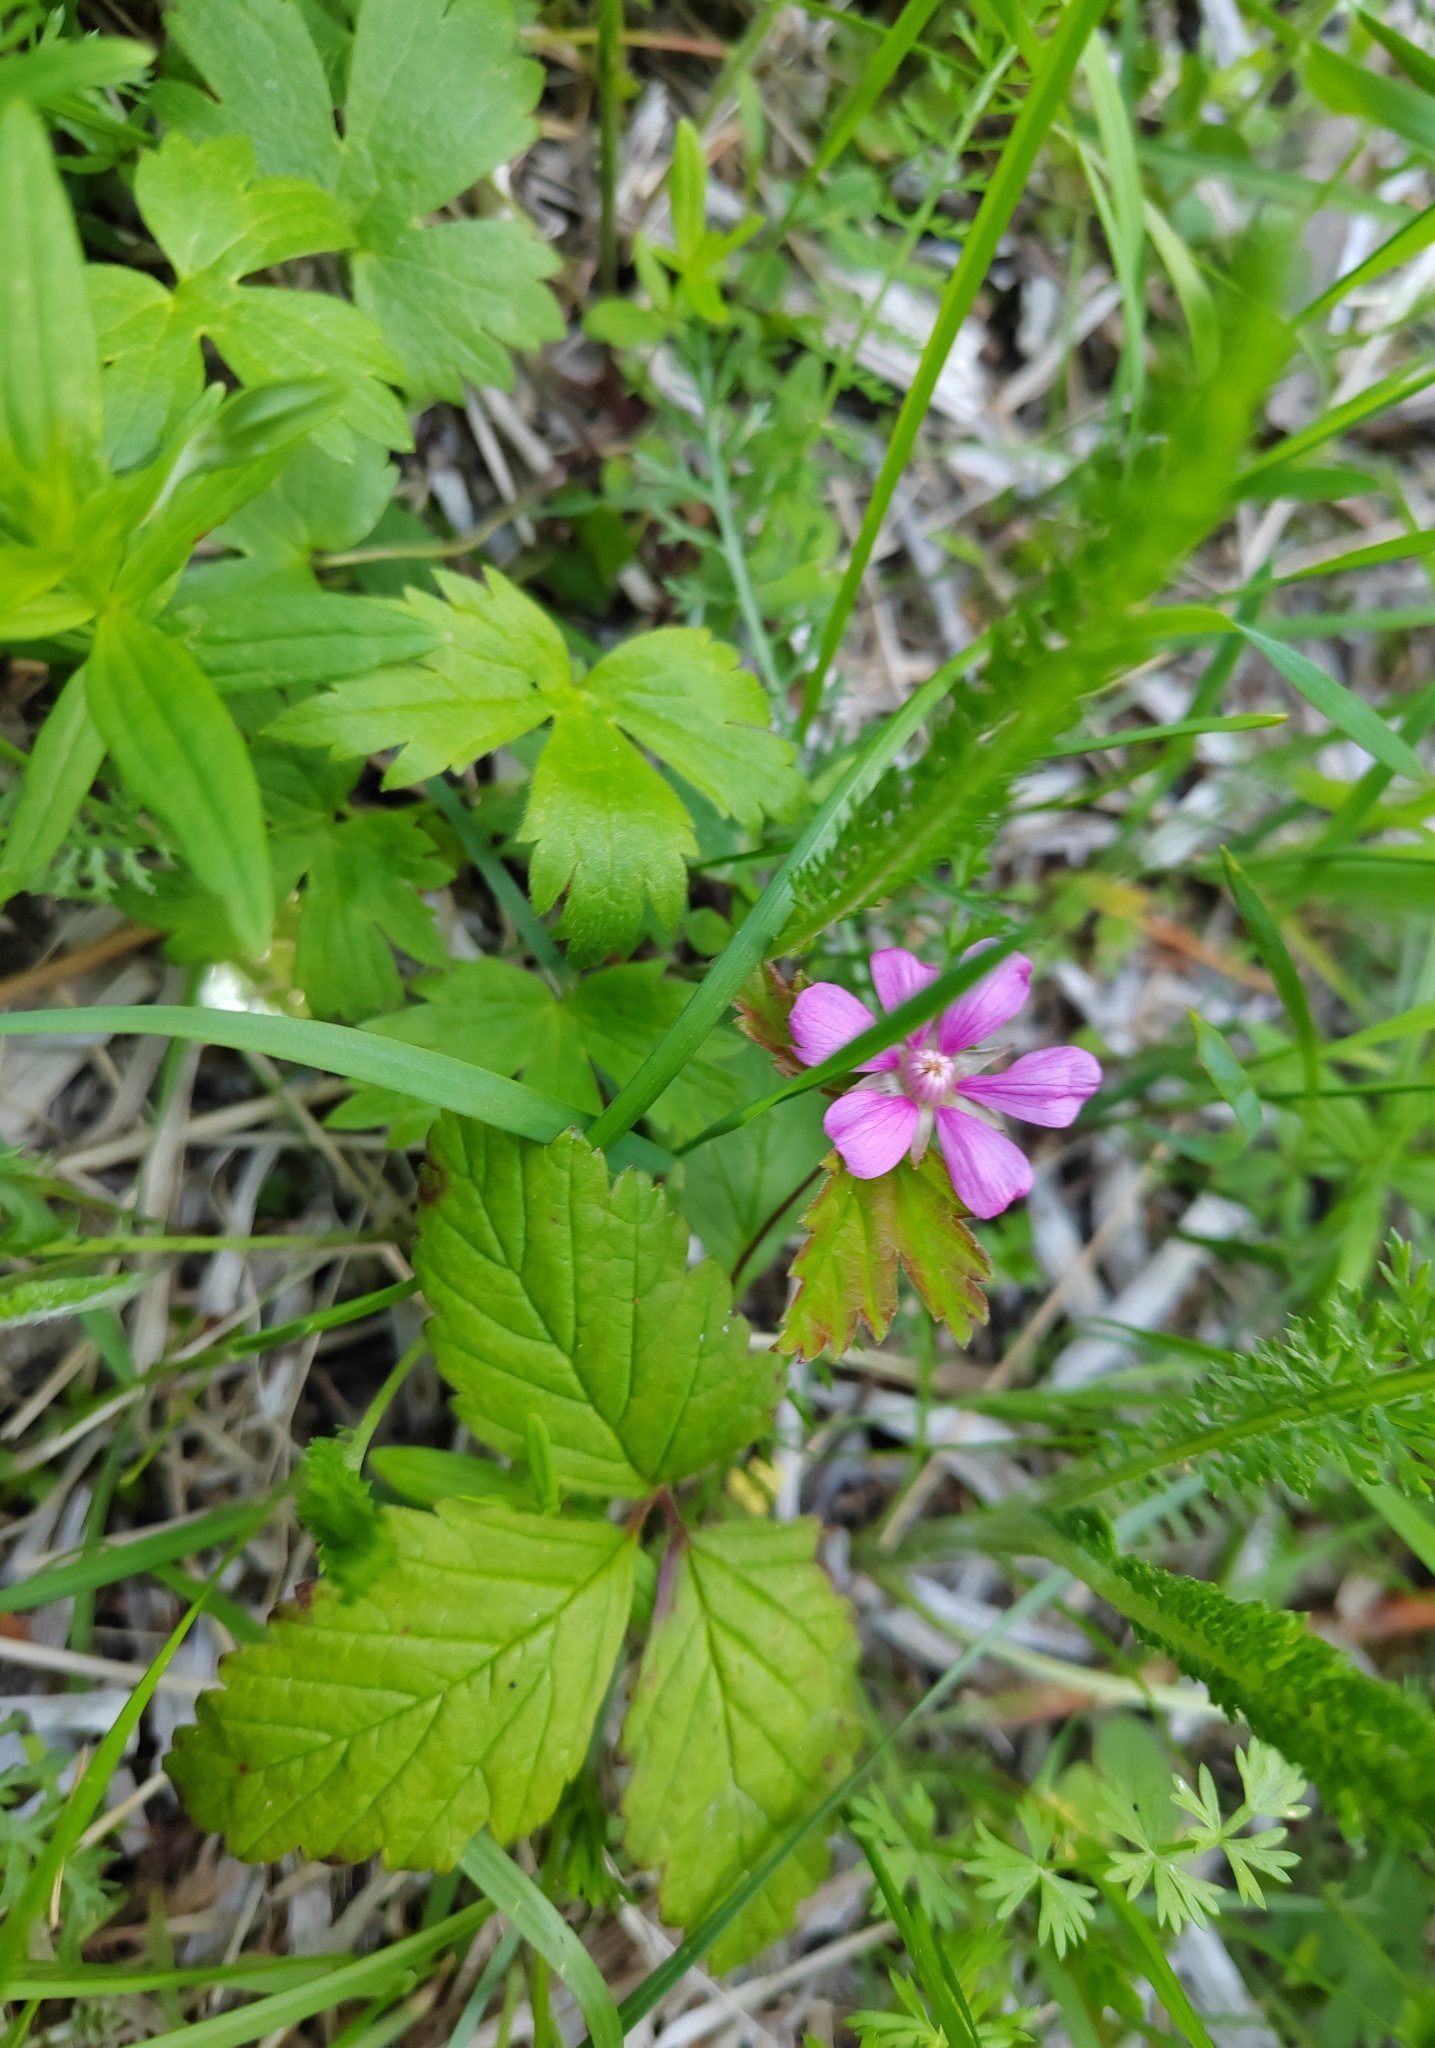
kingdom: Plantae
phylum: Tracheophyta
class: Magnoliopsida
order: Rosales
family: Rosaceae
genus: Rubus
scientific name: Rubus arcticus
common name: Arctic bramble
